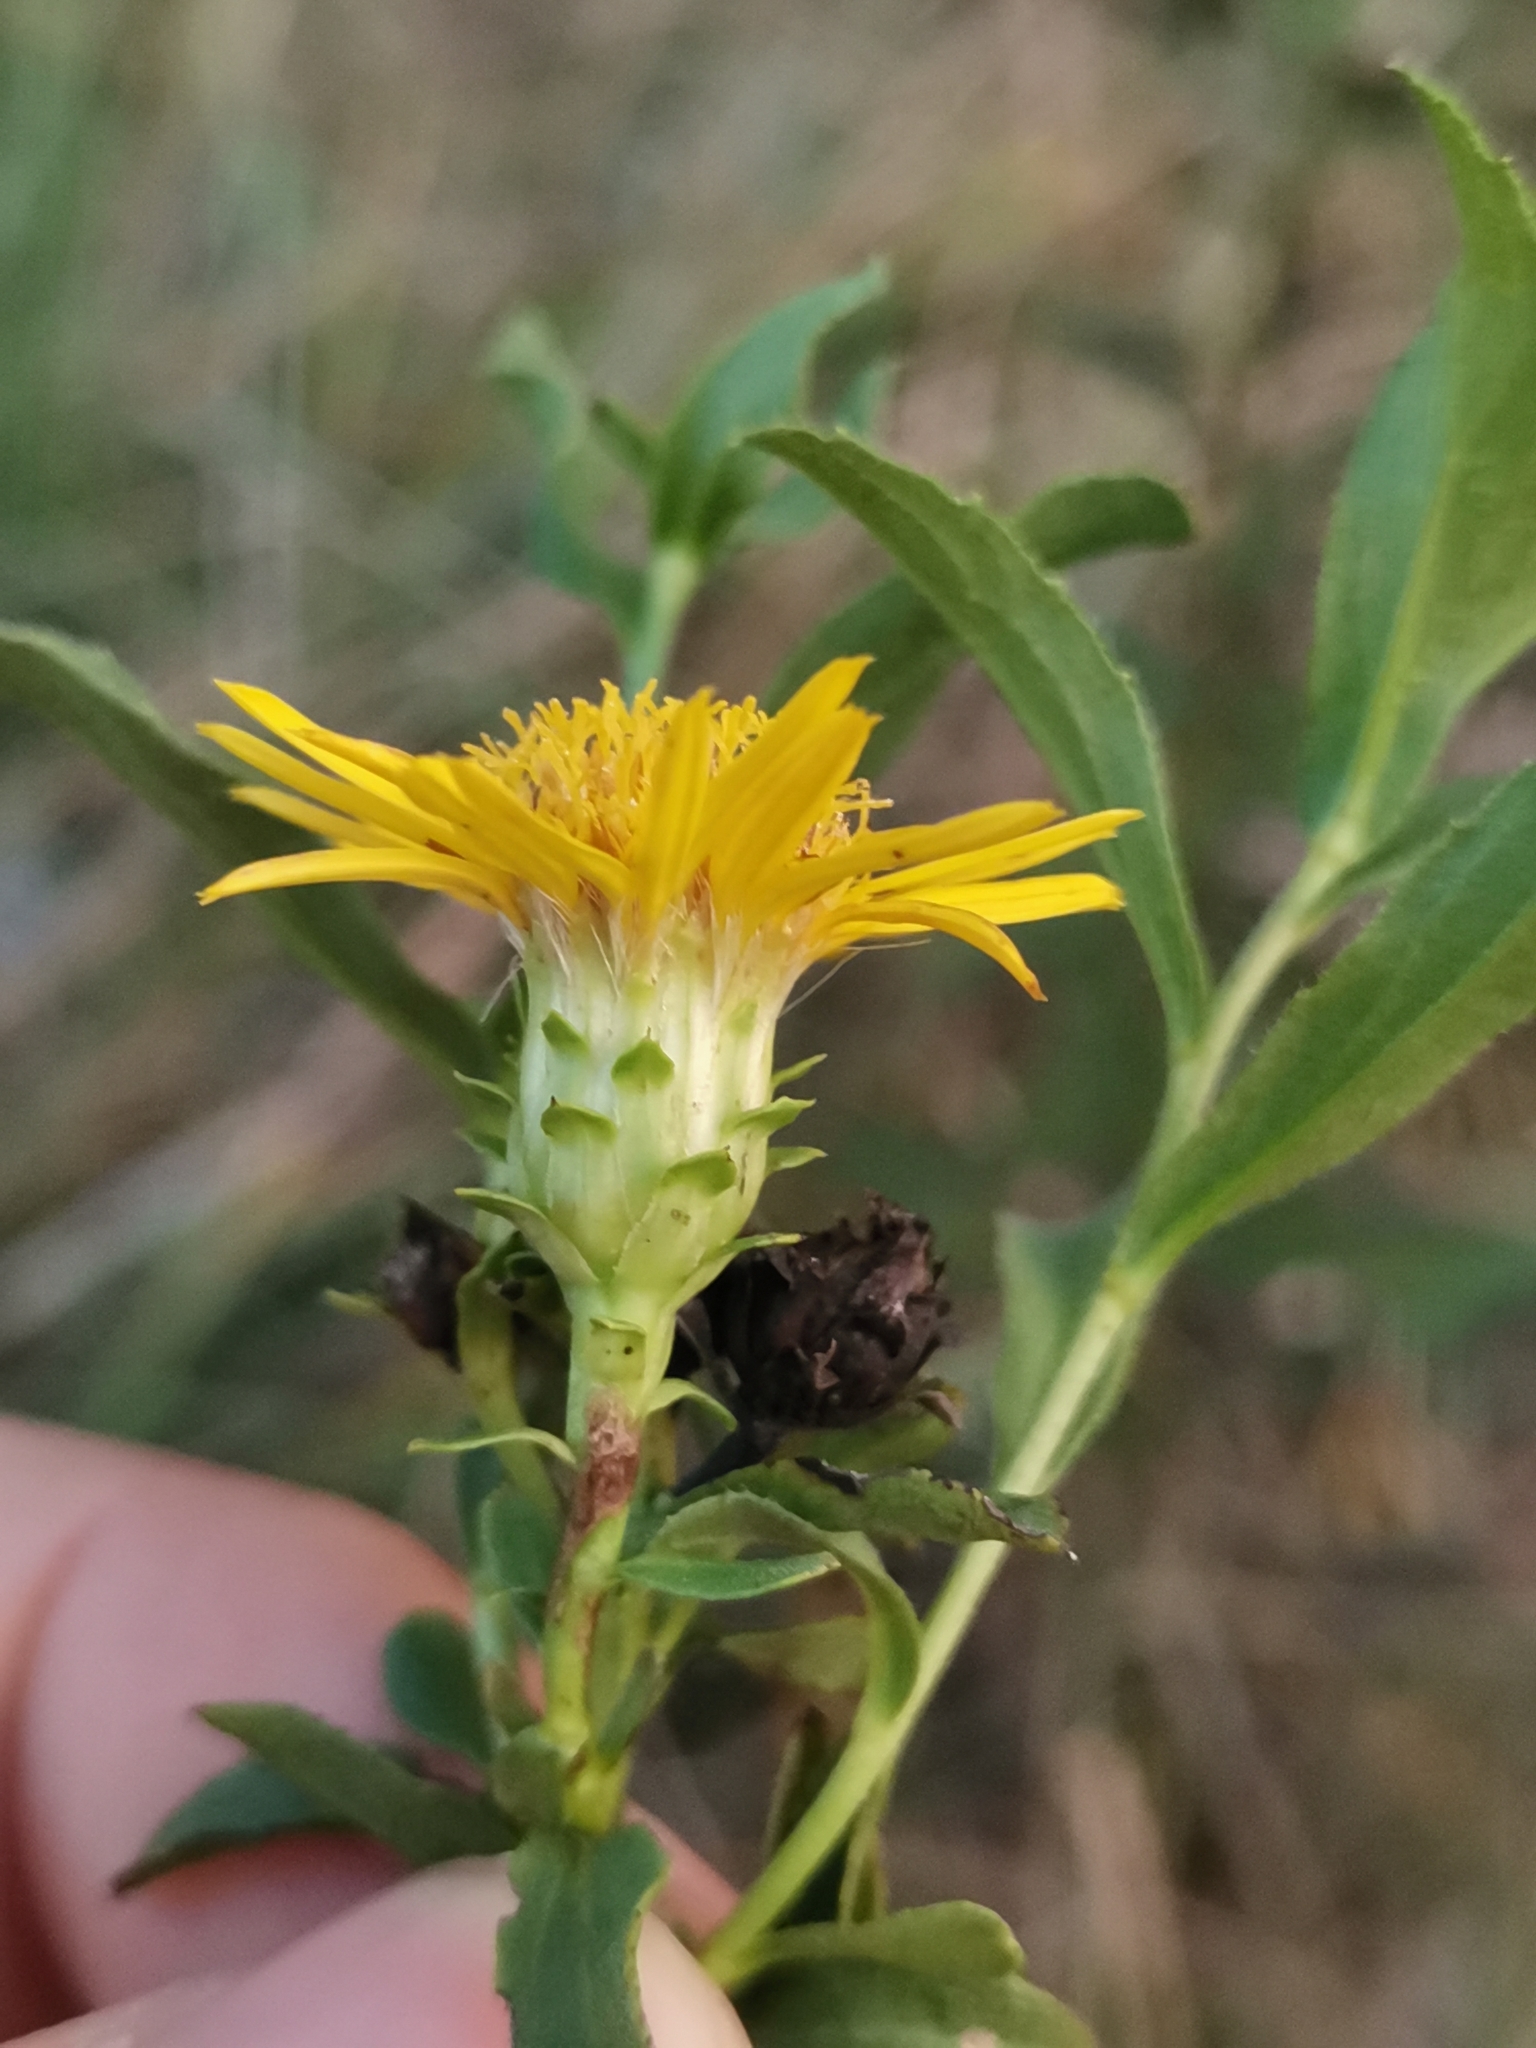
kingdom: Plantae
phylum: Tracheophyta
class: Magnoliopsida
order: Asterales
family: Asteraceae
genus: Pentanema
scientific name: Pentanema spiraeifolium
